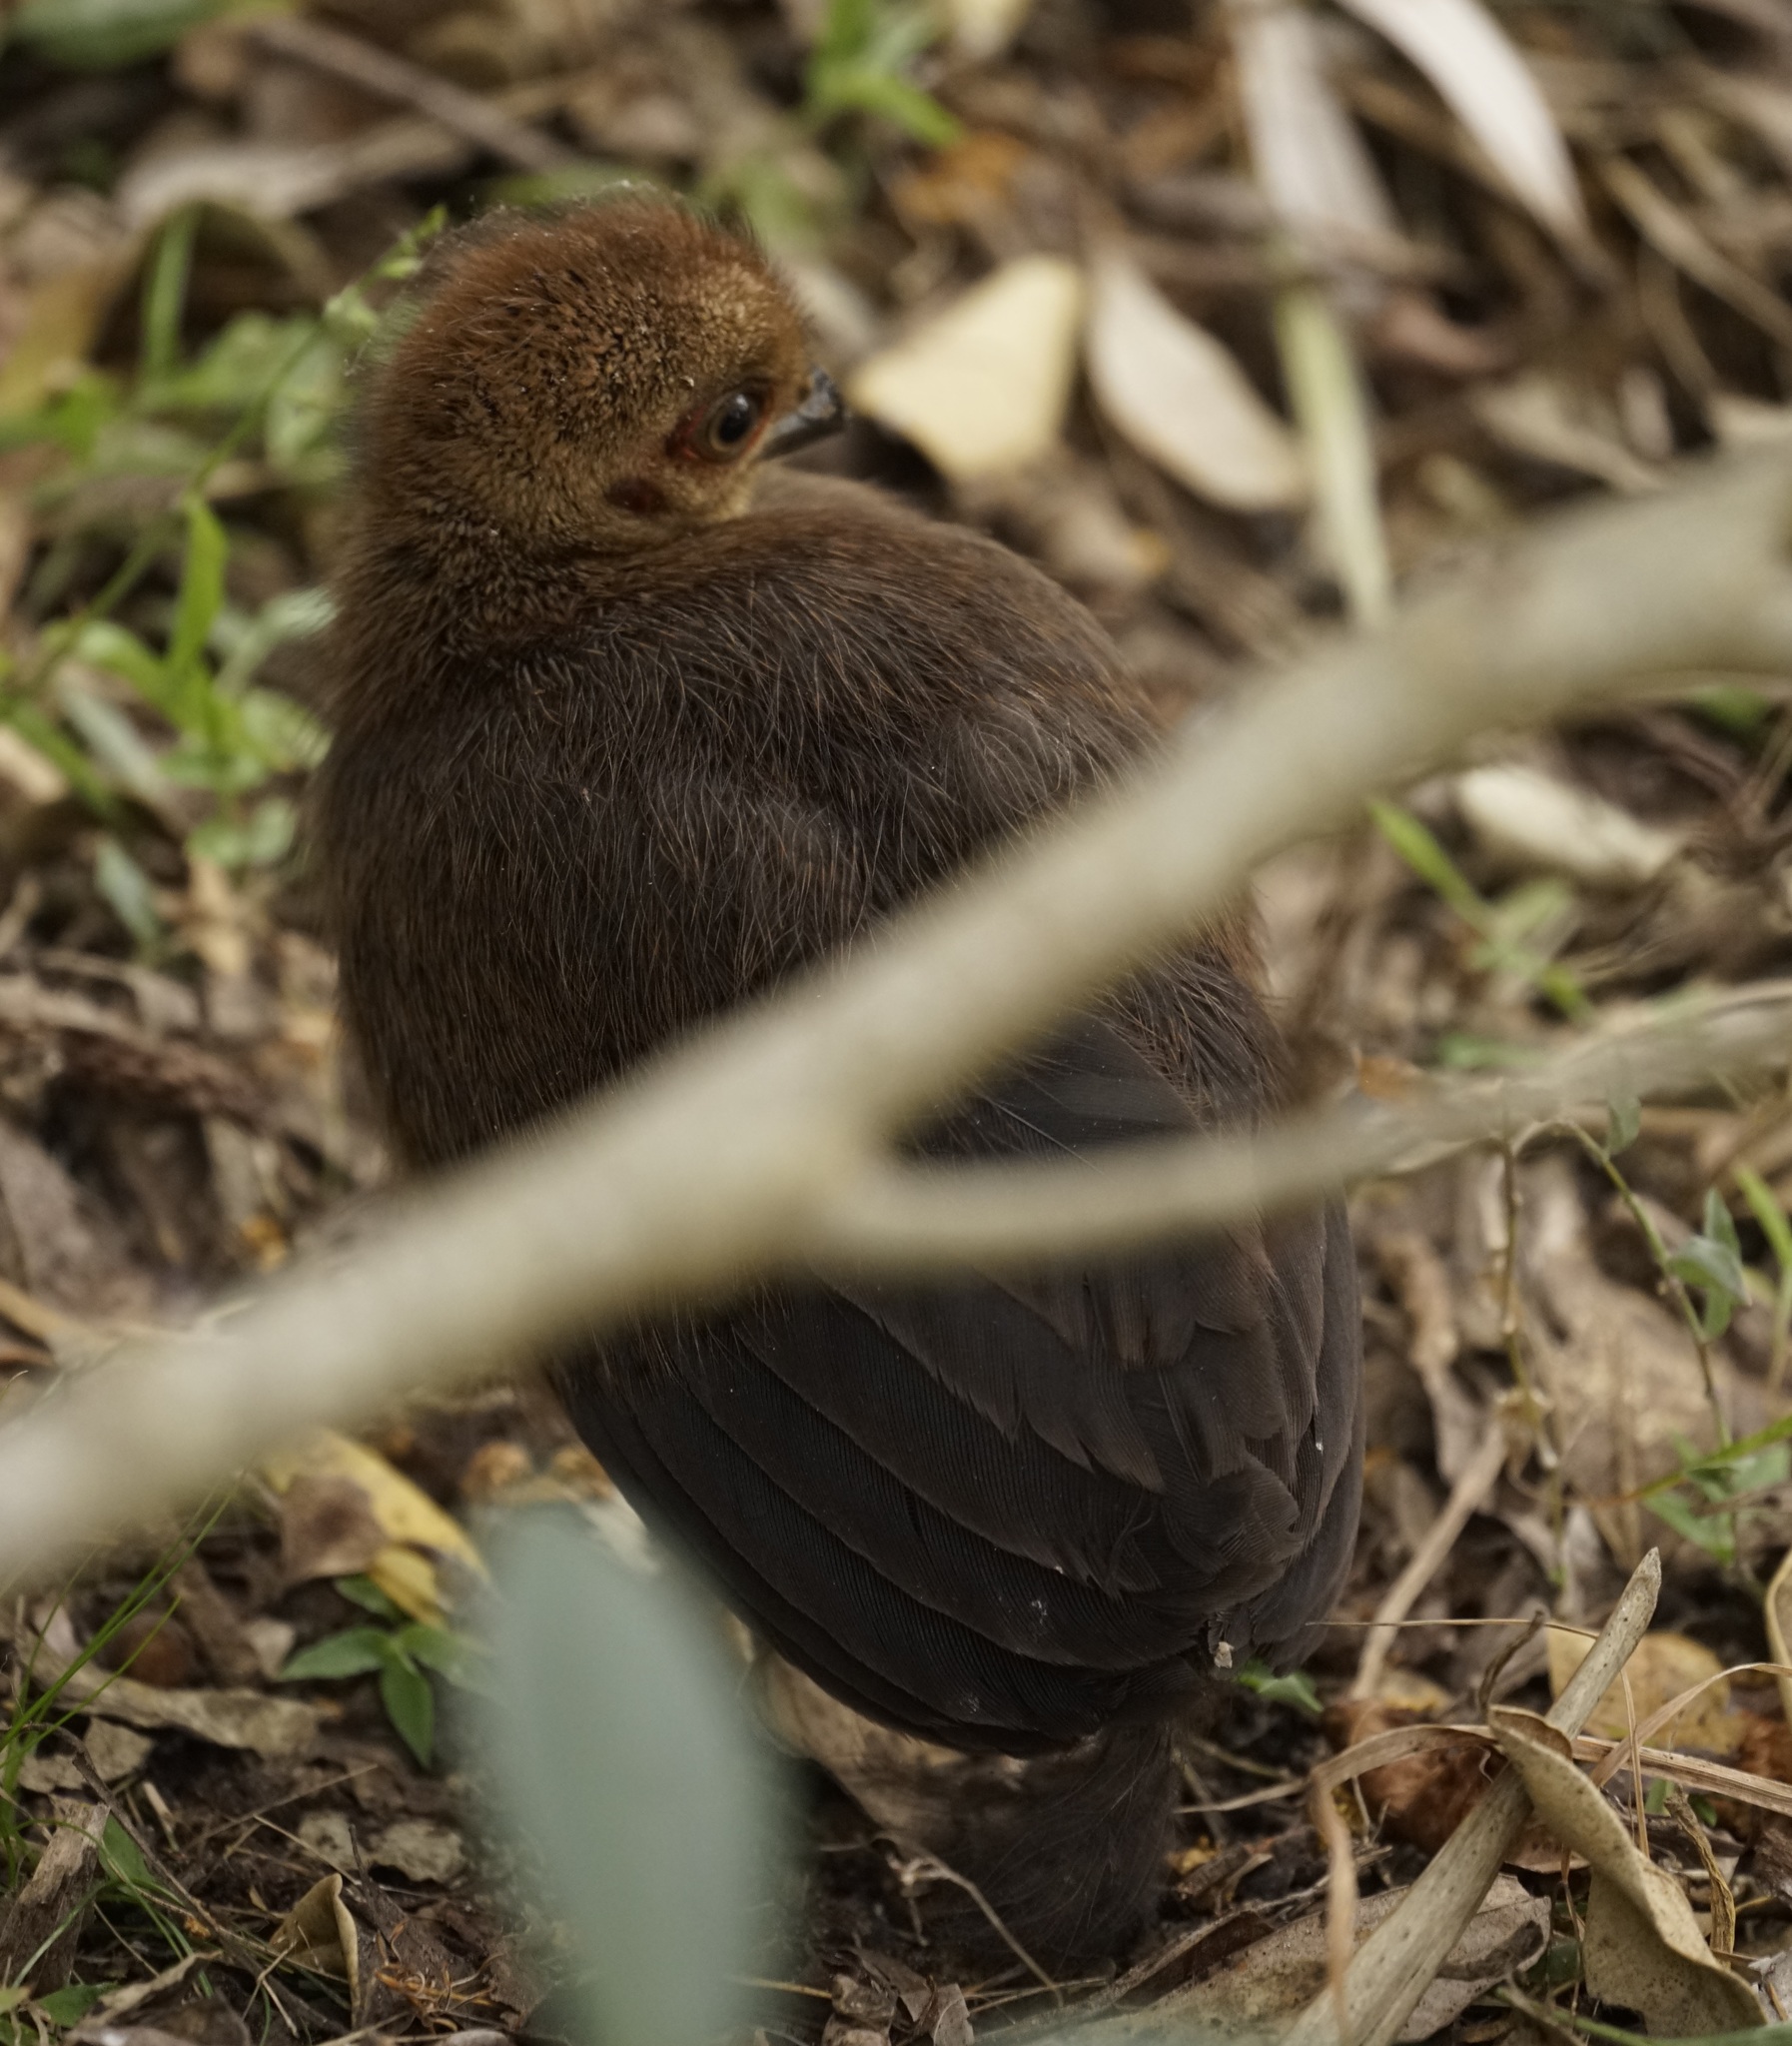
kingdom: Animalia
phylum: Chordata
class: Aves
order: Galliformes
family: Megapodiidae
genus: Alectura
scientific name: Alectura lathami
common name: Australian brushturkey
